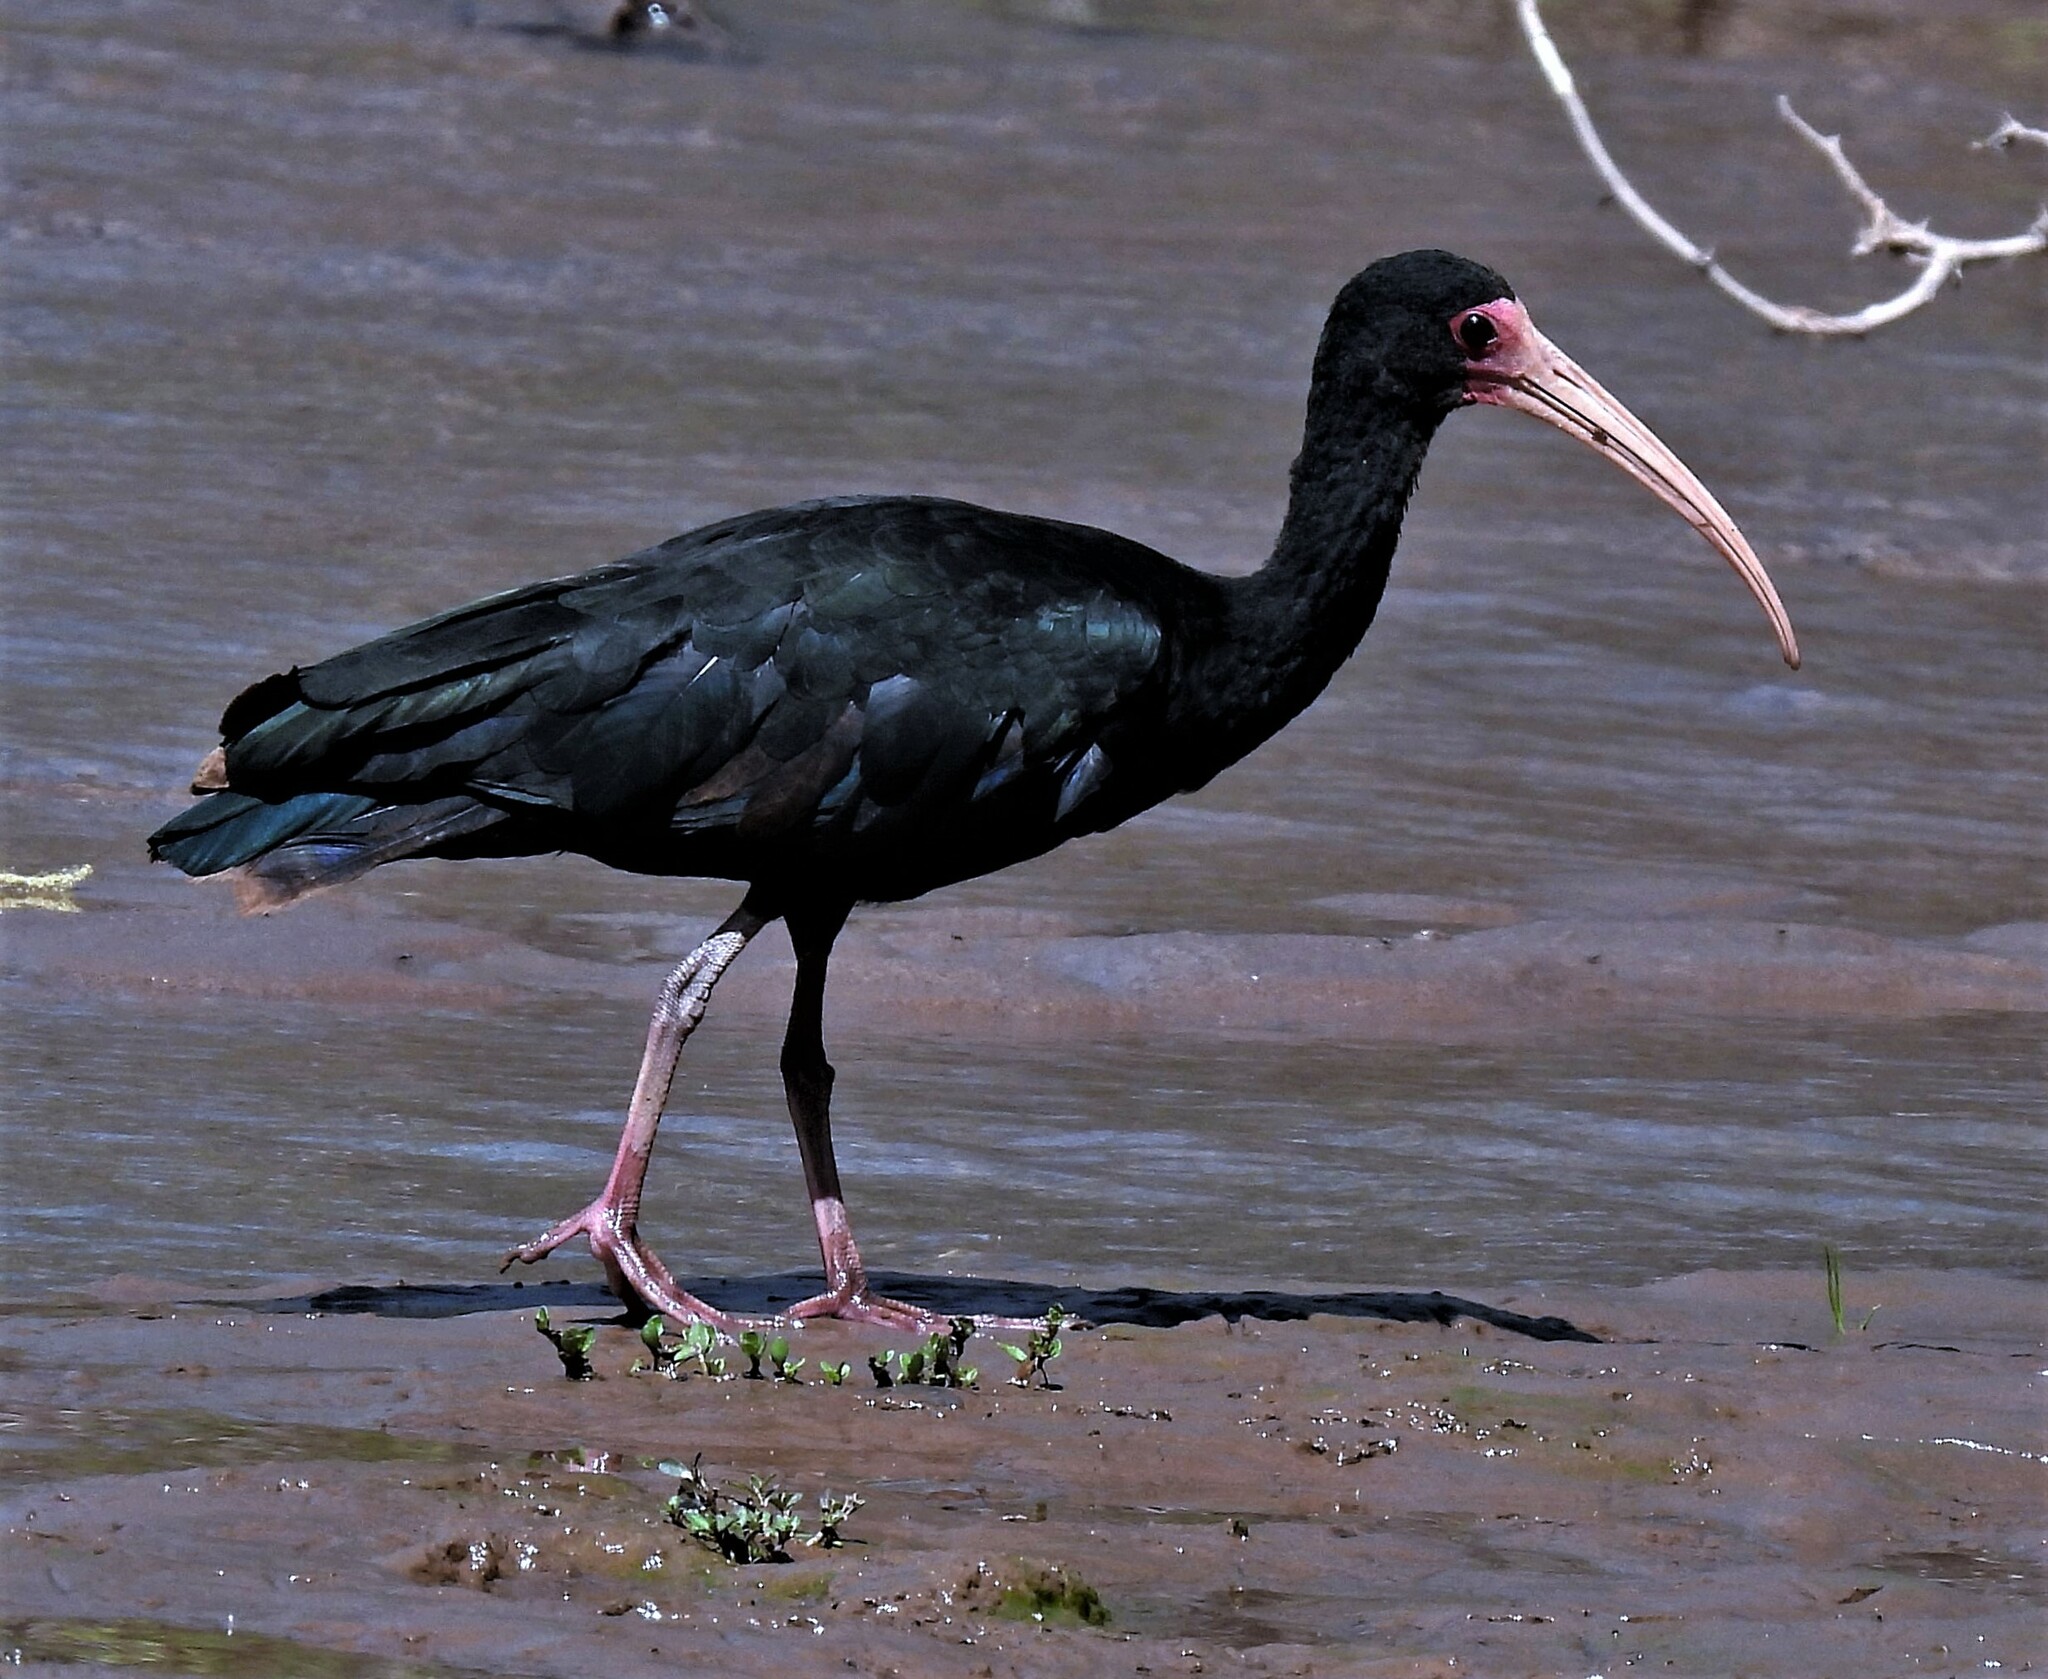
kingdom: Animalia
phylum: Chordata
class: Aves
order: Pelecaniformes
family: Threskiornithidae
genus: Phimosus
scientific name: Phimosus infuscatus
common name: Bare-faced ibis
